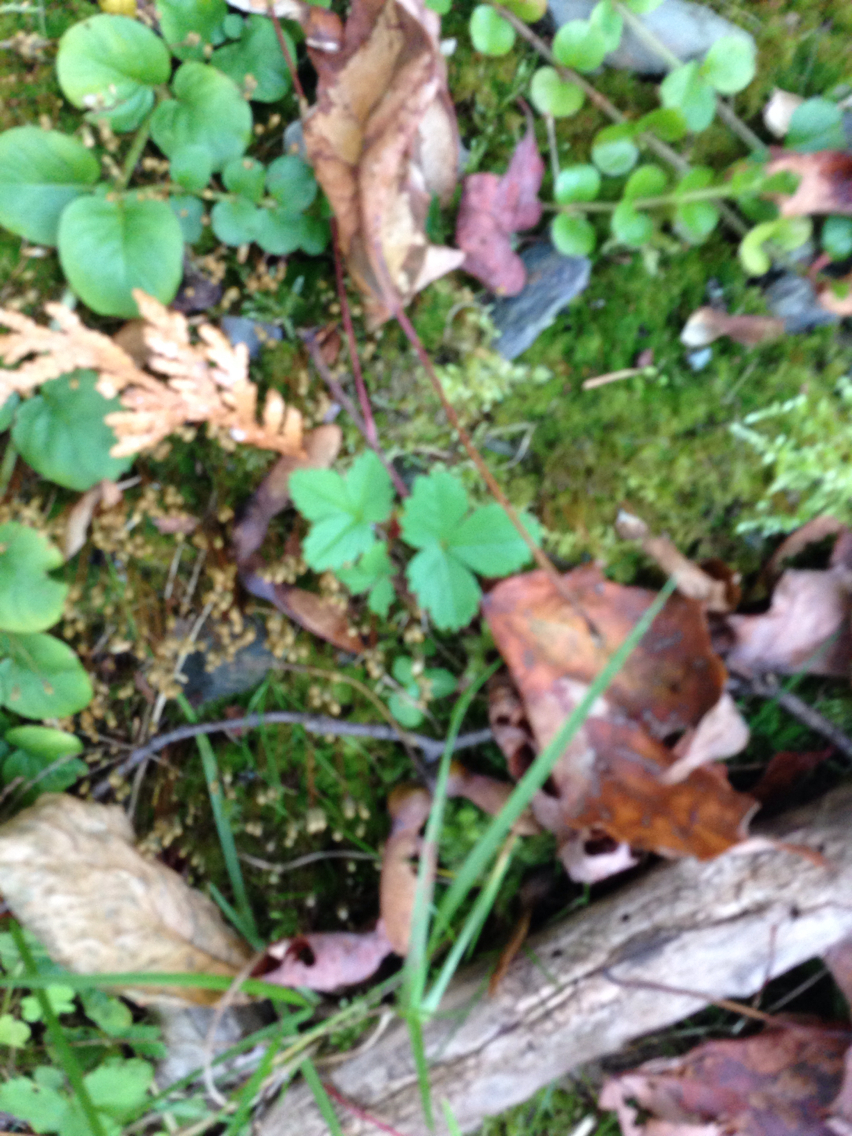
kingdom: Plantae
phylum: Tracheophyta
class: Magnoliopsida
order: Rosales
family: Rosaceae
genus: Fragaria
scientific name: Fragaria
